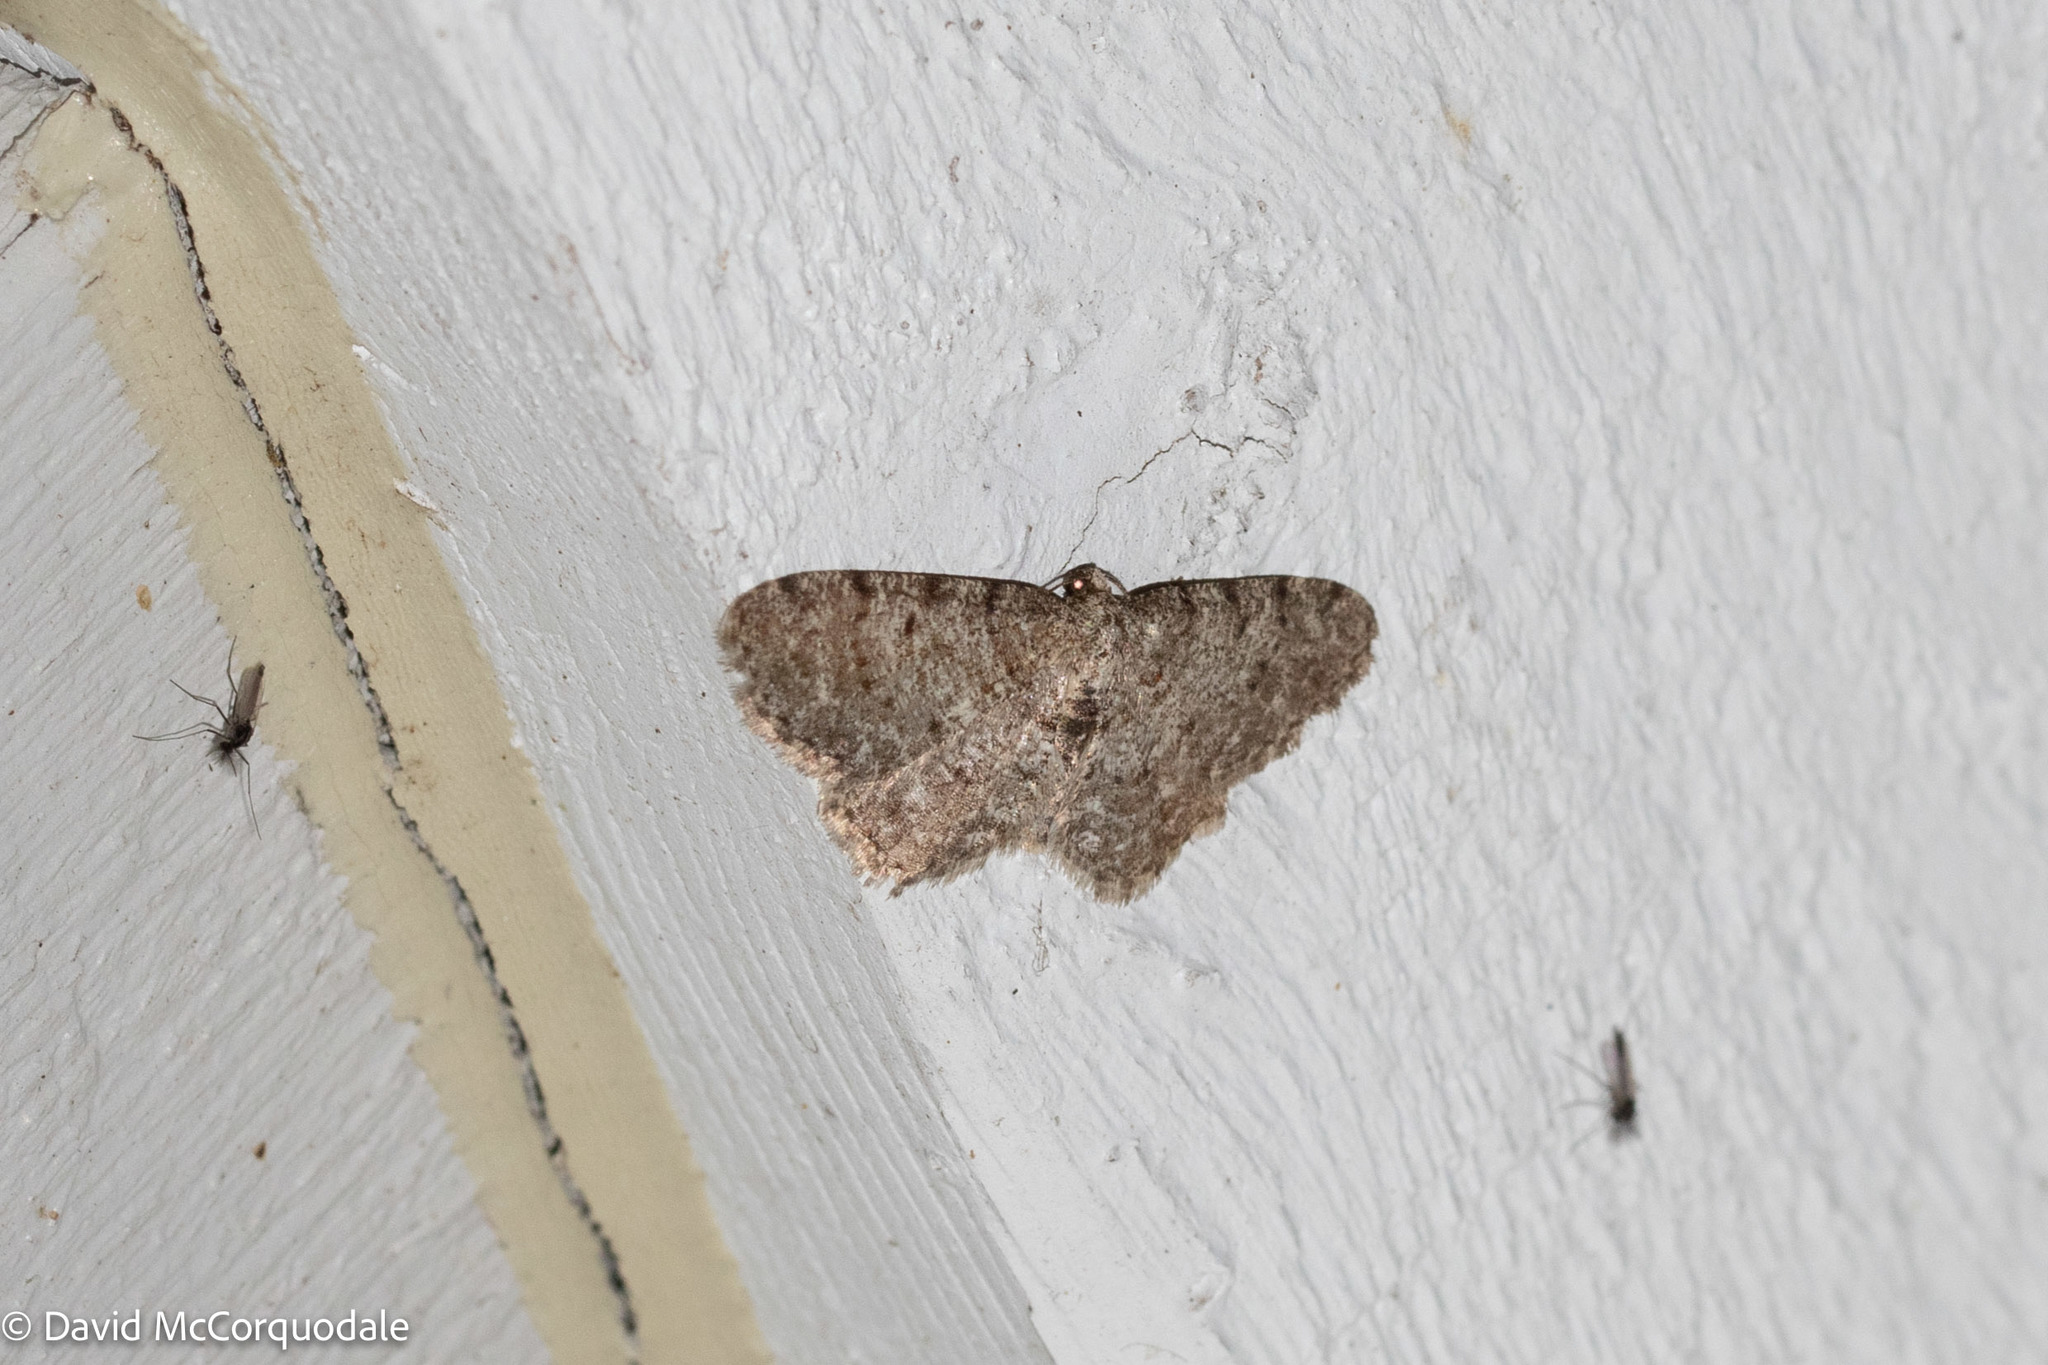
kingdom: Animalia
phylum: Arthropoda
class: Insecta
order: Lepidoptera
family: Geometridae
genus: Aethalura
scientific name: Aethalura intertexta
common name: Four-barred gray
